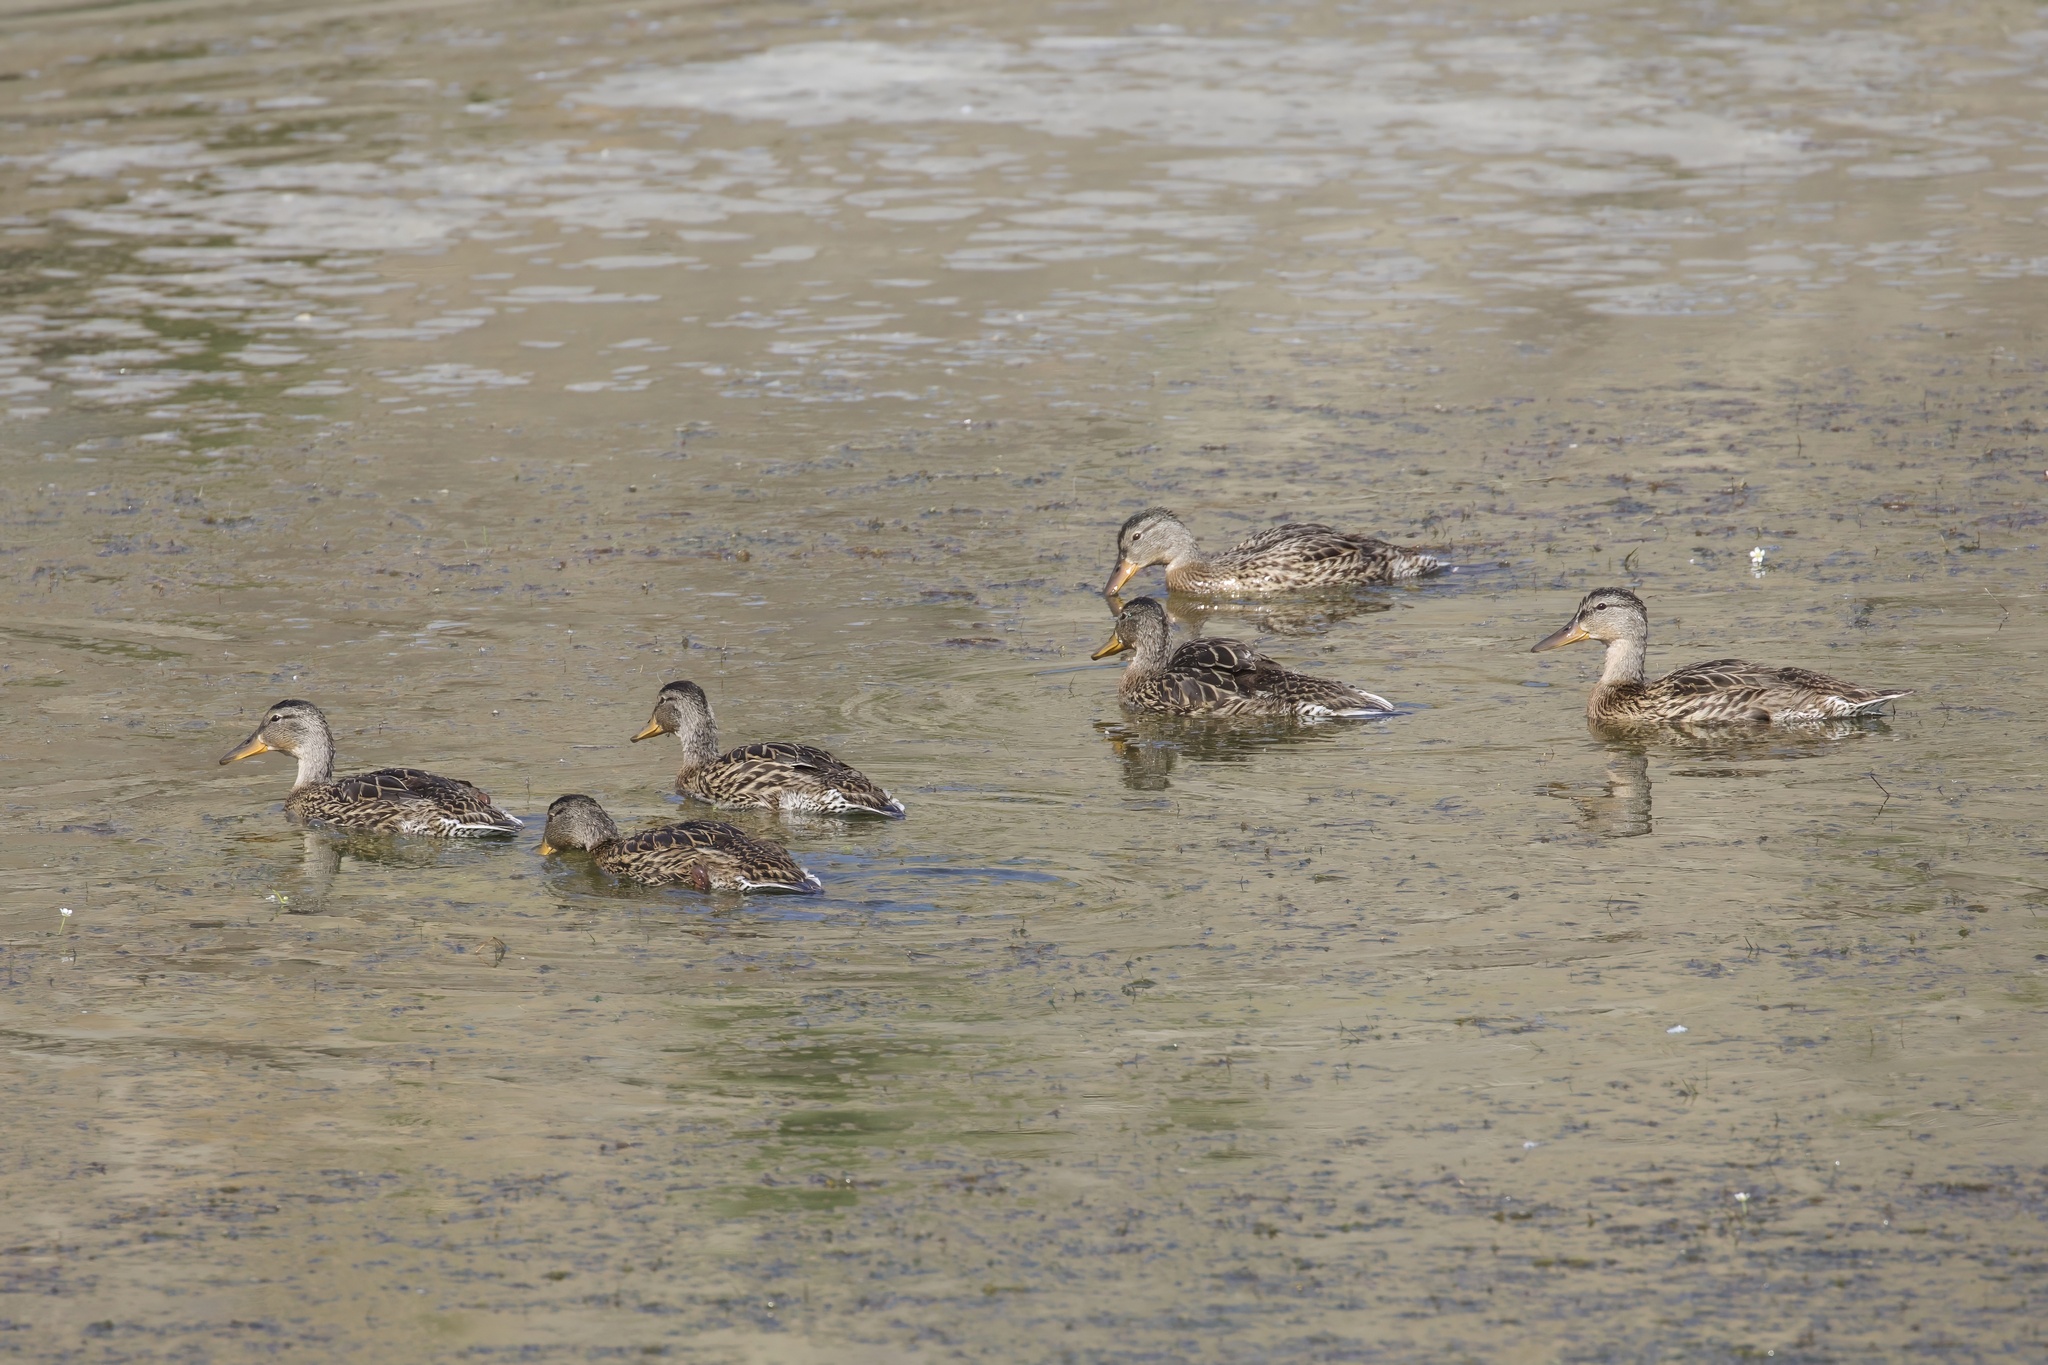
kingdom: Animalia
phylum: Chordata
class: Aves
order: Anseriformes
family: Anatidae
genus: Anas
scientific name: Anas platyrhynchos
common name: Mallard
